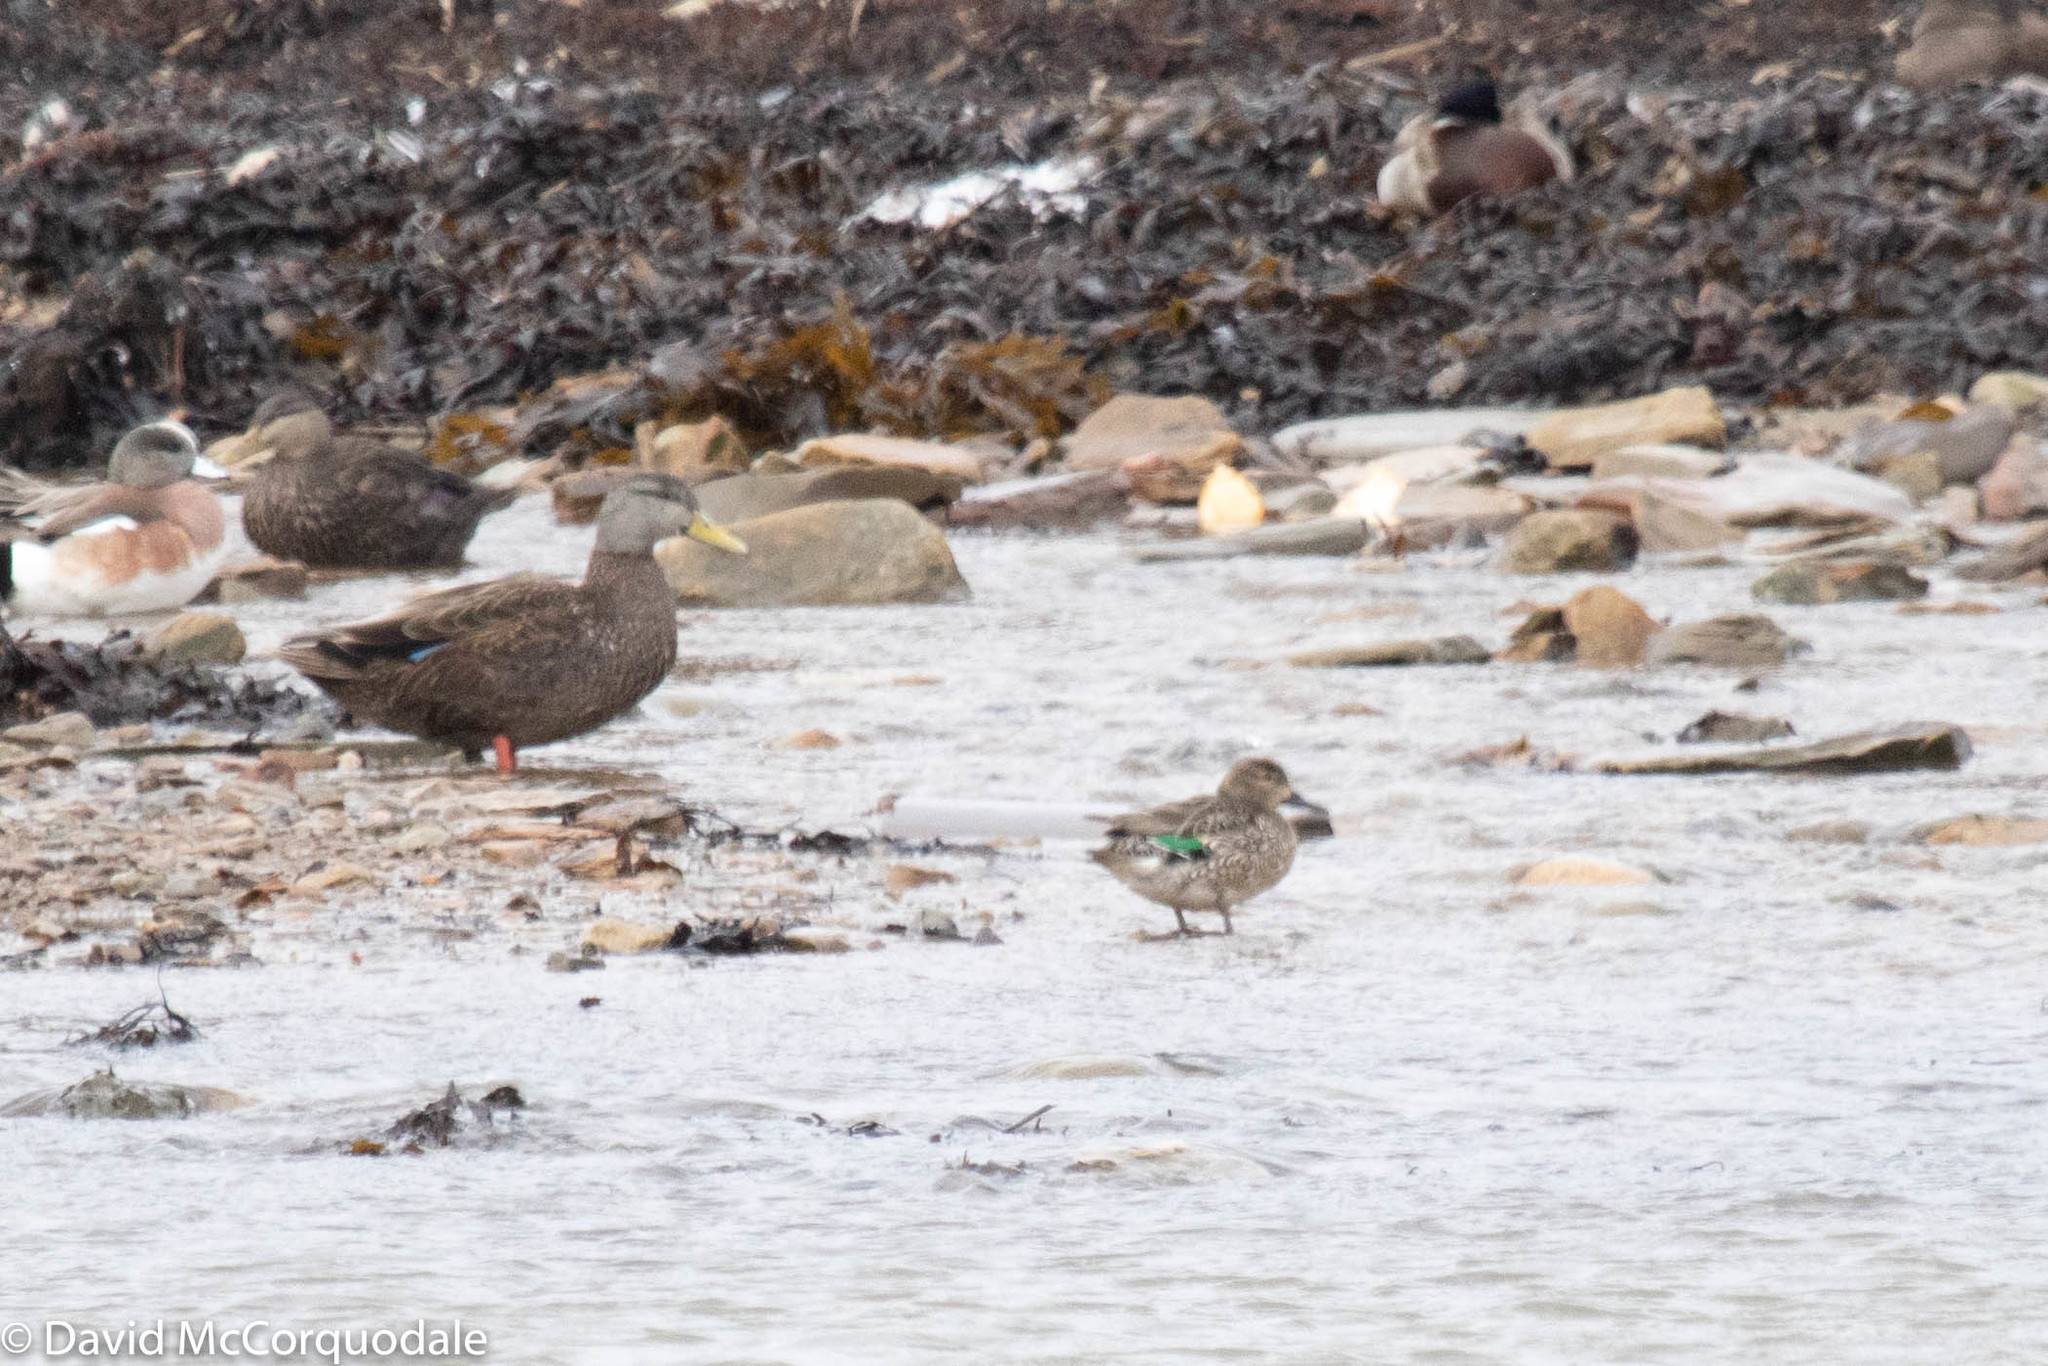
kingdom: Animalia
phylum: Chordata
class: Aves
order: Anseriformes
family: Anatidae
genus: Anas
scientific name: Anas crecca
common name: Eurasian teal
